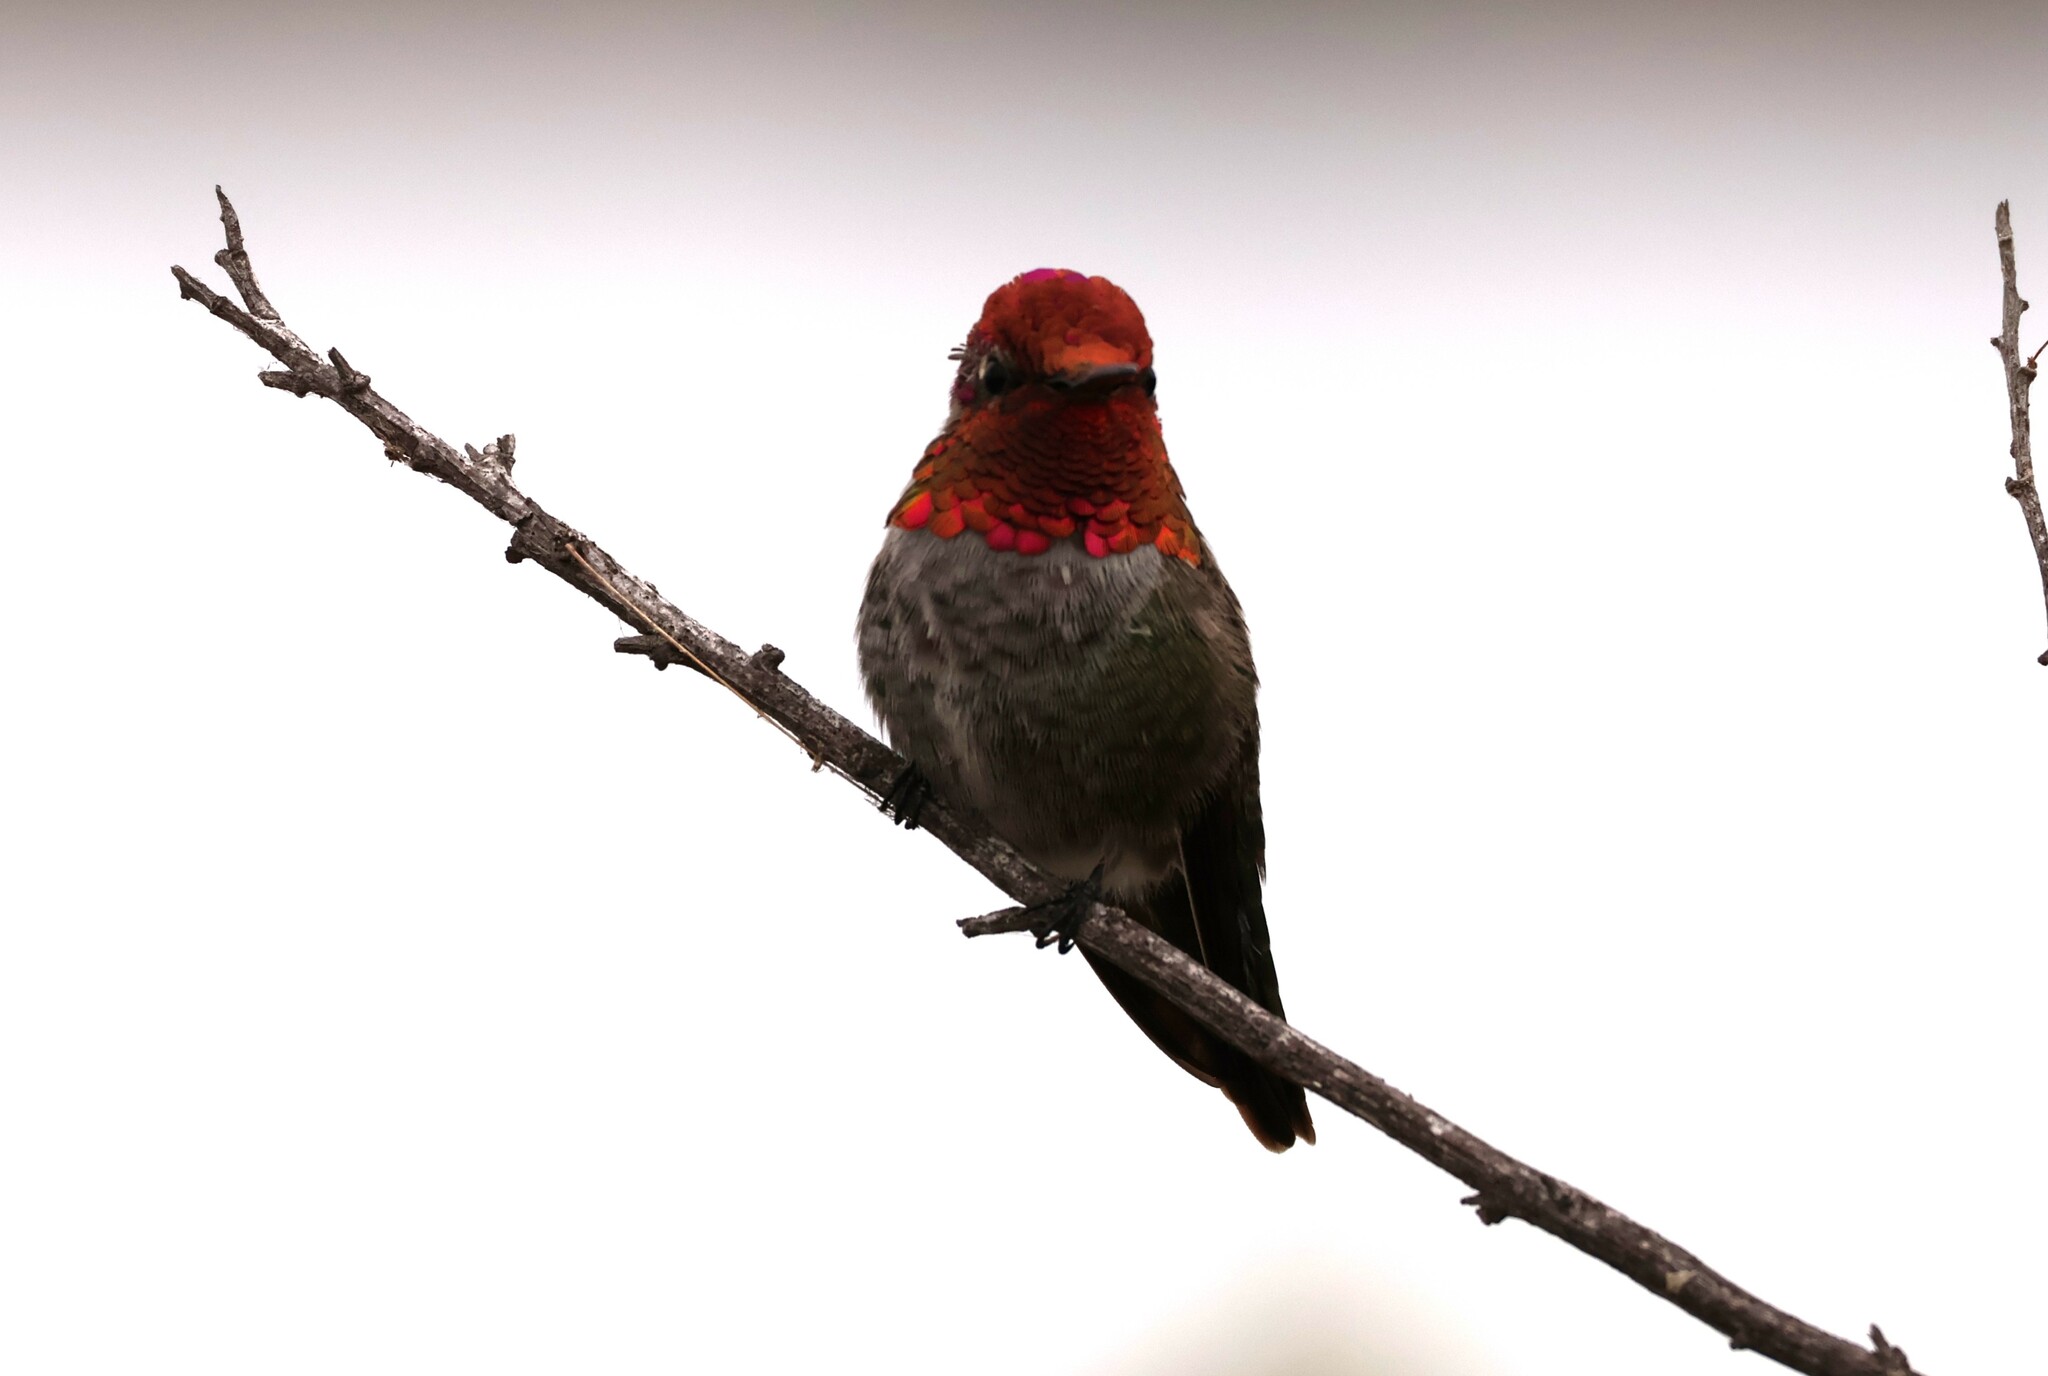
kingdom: Animalia
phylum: Chordata
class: Aves
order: Apodiformes
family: Trochilidae
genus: Calypte
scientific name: Calypte anna
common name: Anna's hummingbird
